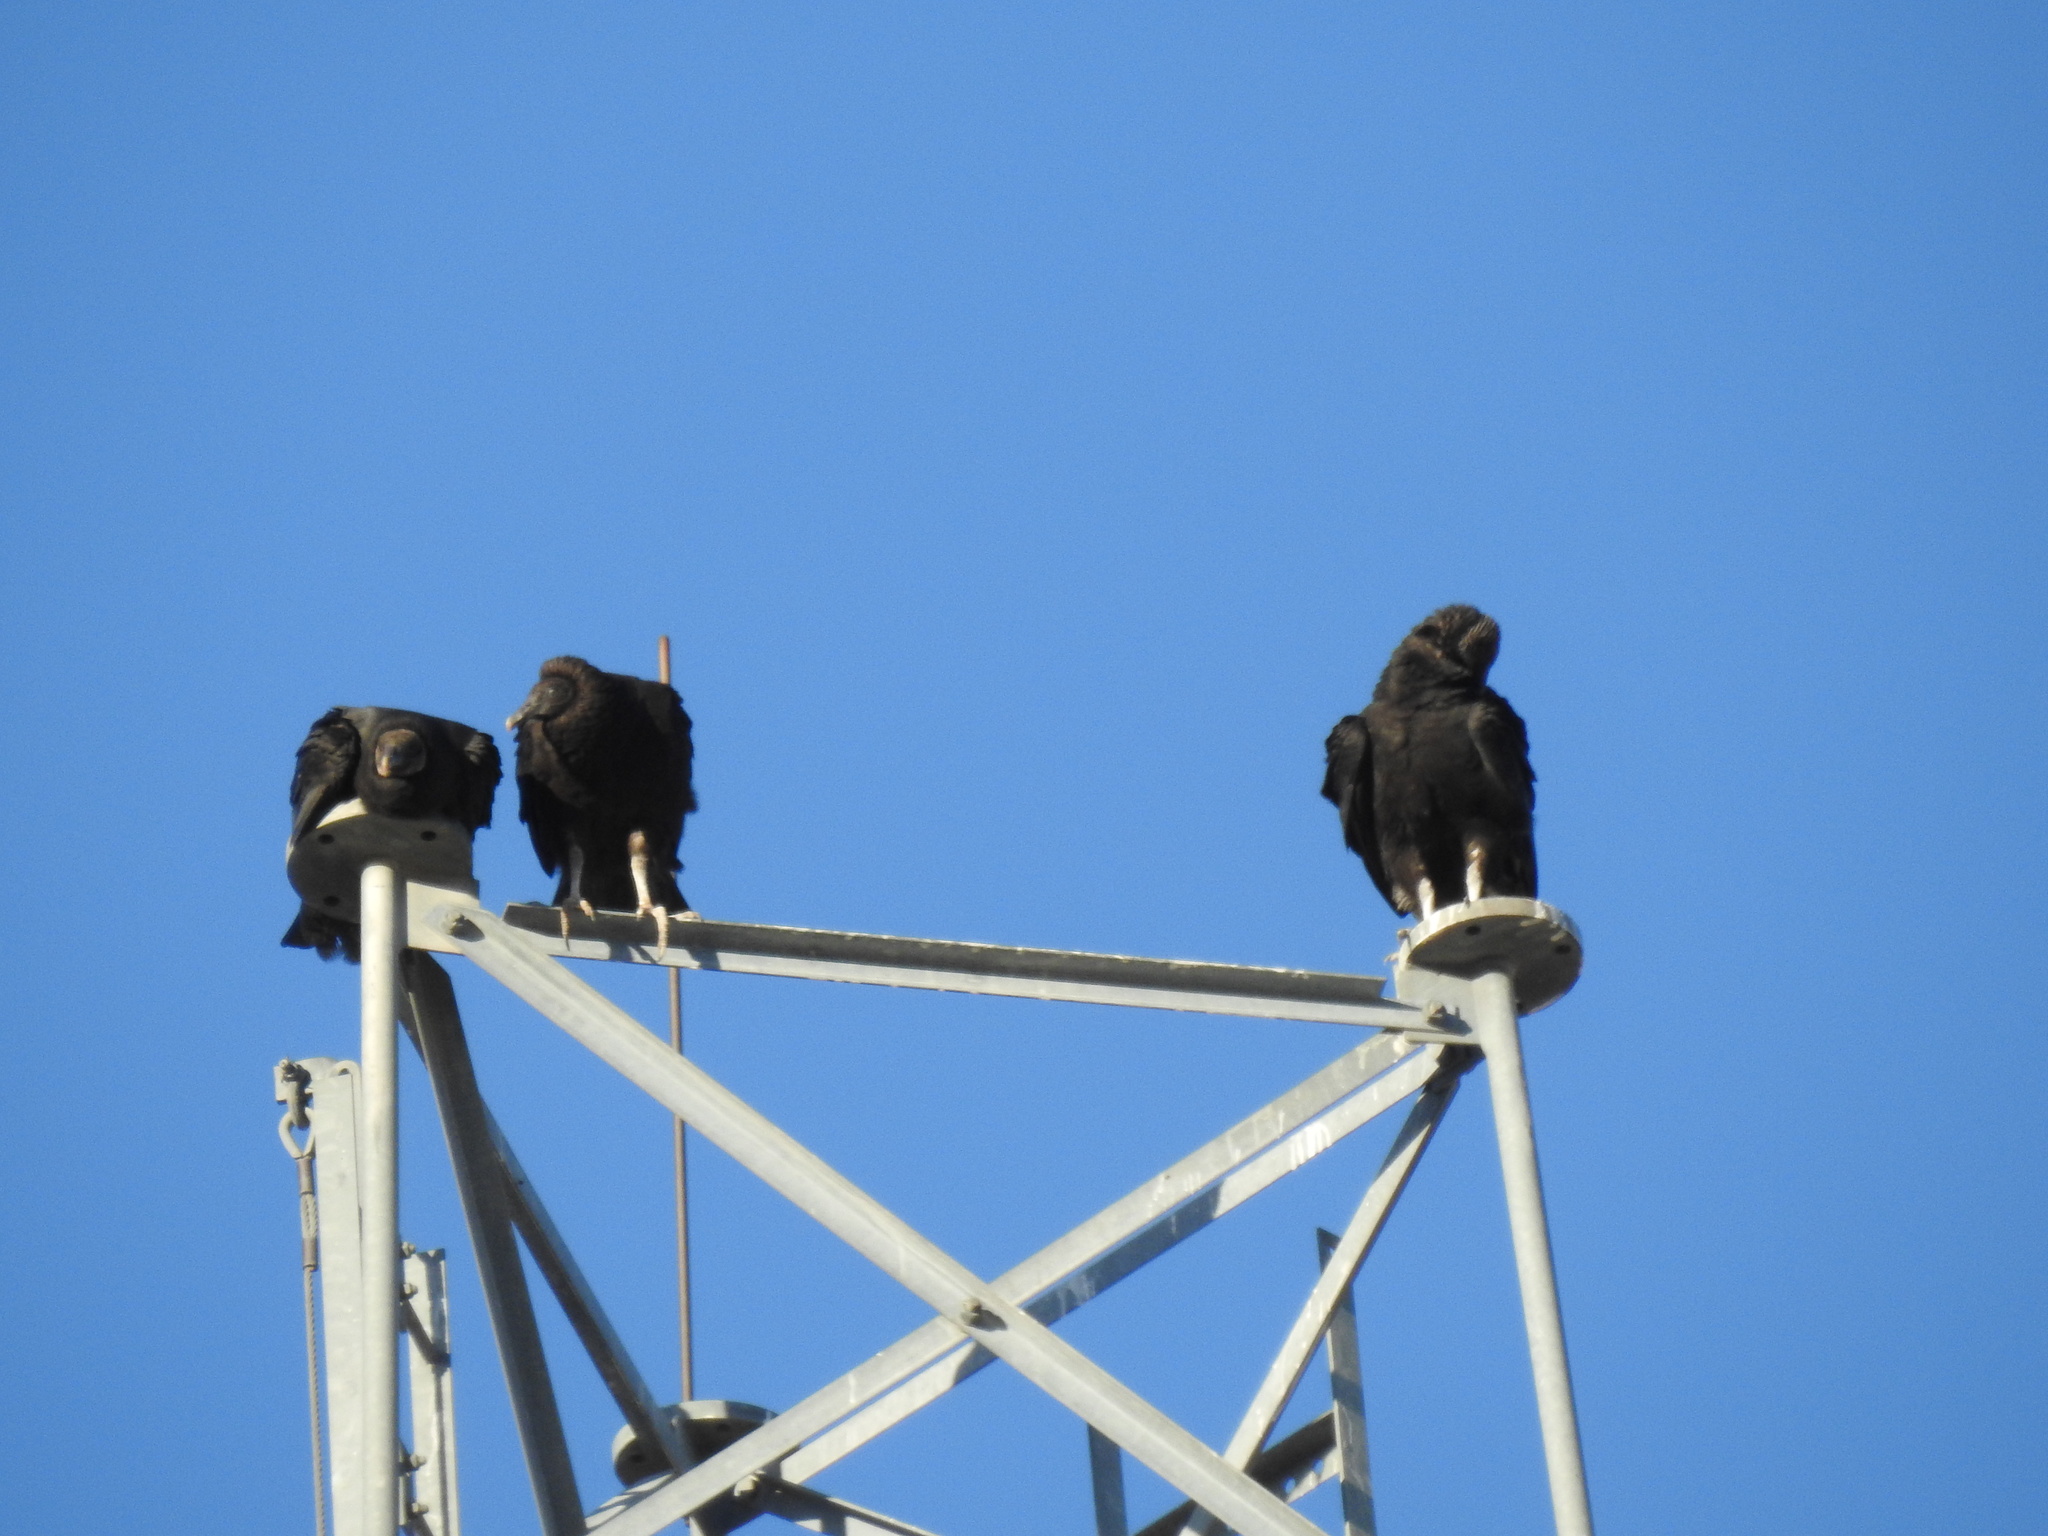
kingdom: Animalia
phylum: Chordata
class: Aves
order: Accipitriformes
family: Cathartidae
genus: Coragyps
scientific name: Coragyps atratus
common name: Black vulture
